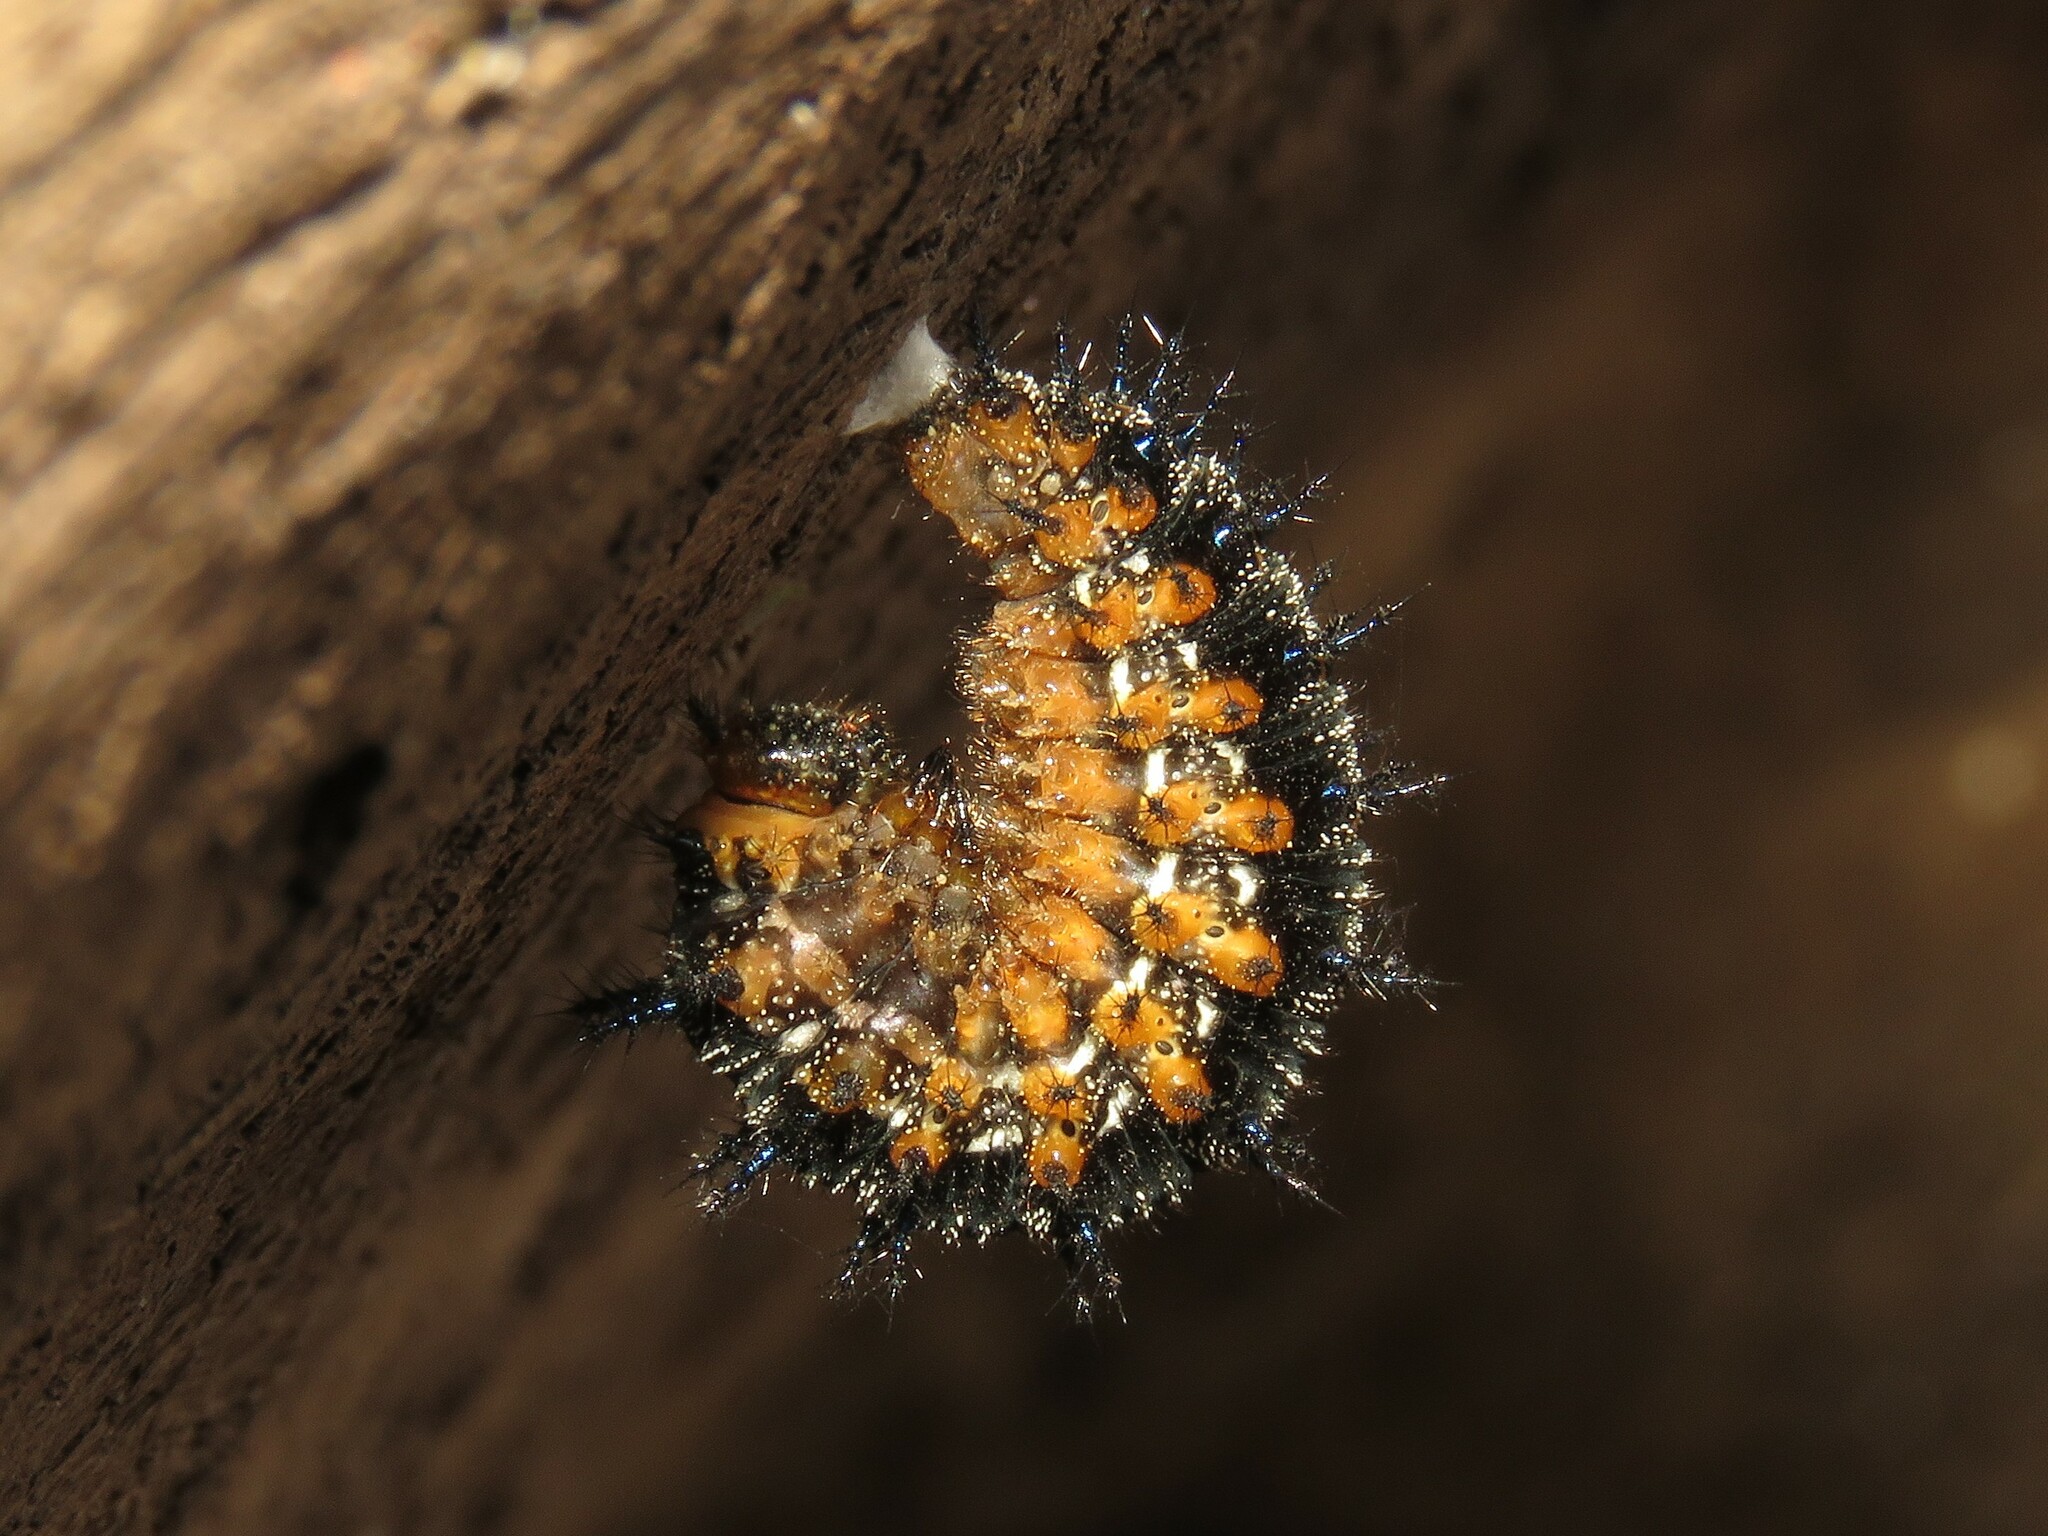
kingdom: Animalia
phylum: Arthropoda
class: Insecta
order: Lepidoptera
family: Nymphalidae
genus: Junonia
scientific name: Junonia coenia
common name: Common buckeye
